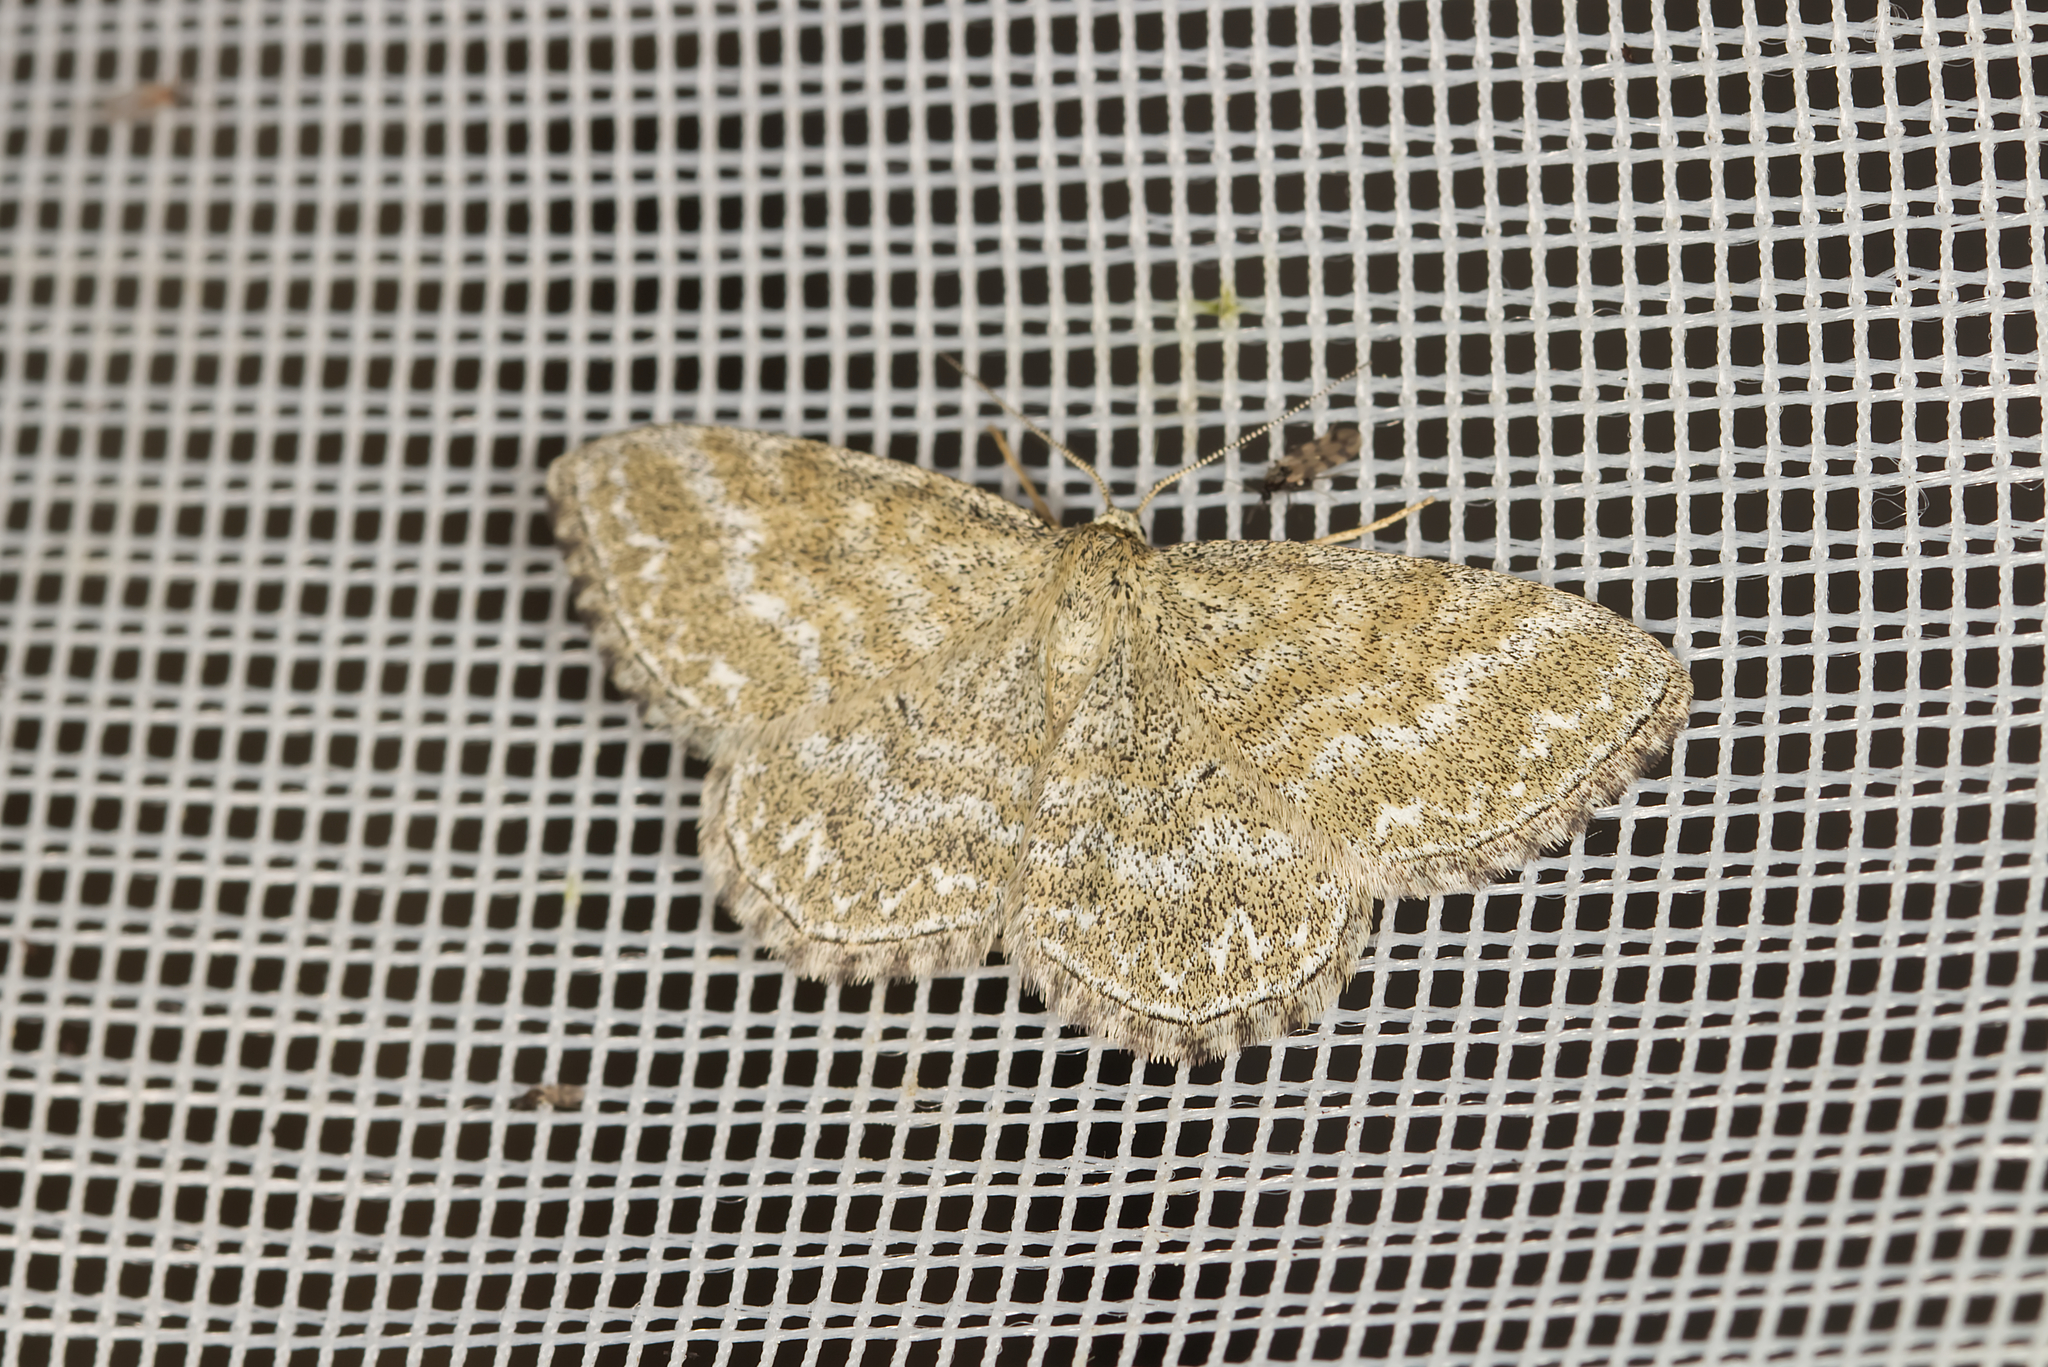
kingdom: Animalia
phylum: Arthropoda
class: Insecta
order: Lepidoptera
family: Geometridae
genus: Scopula
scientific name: Scopula immorata
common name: Lewes wave
